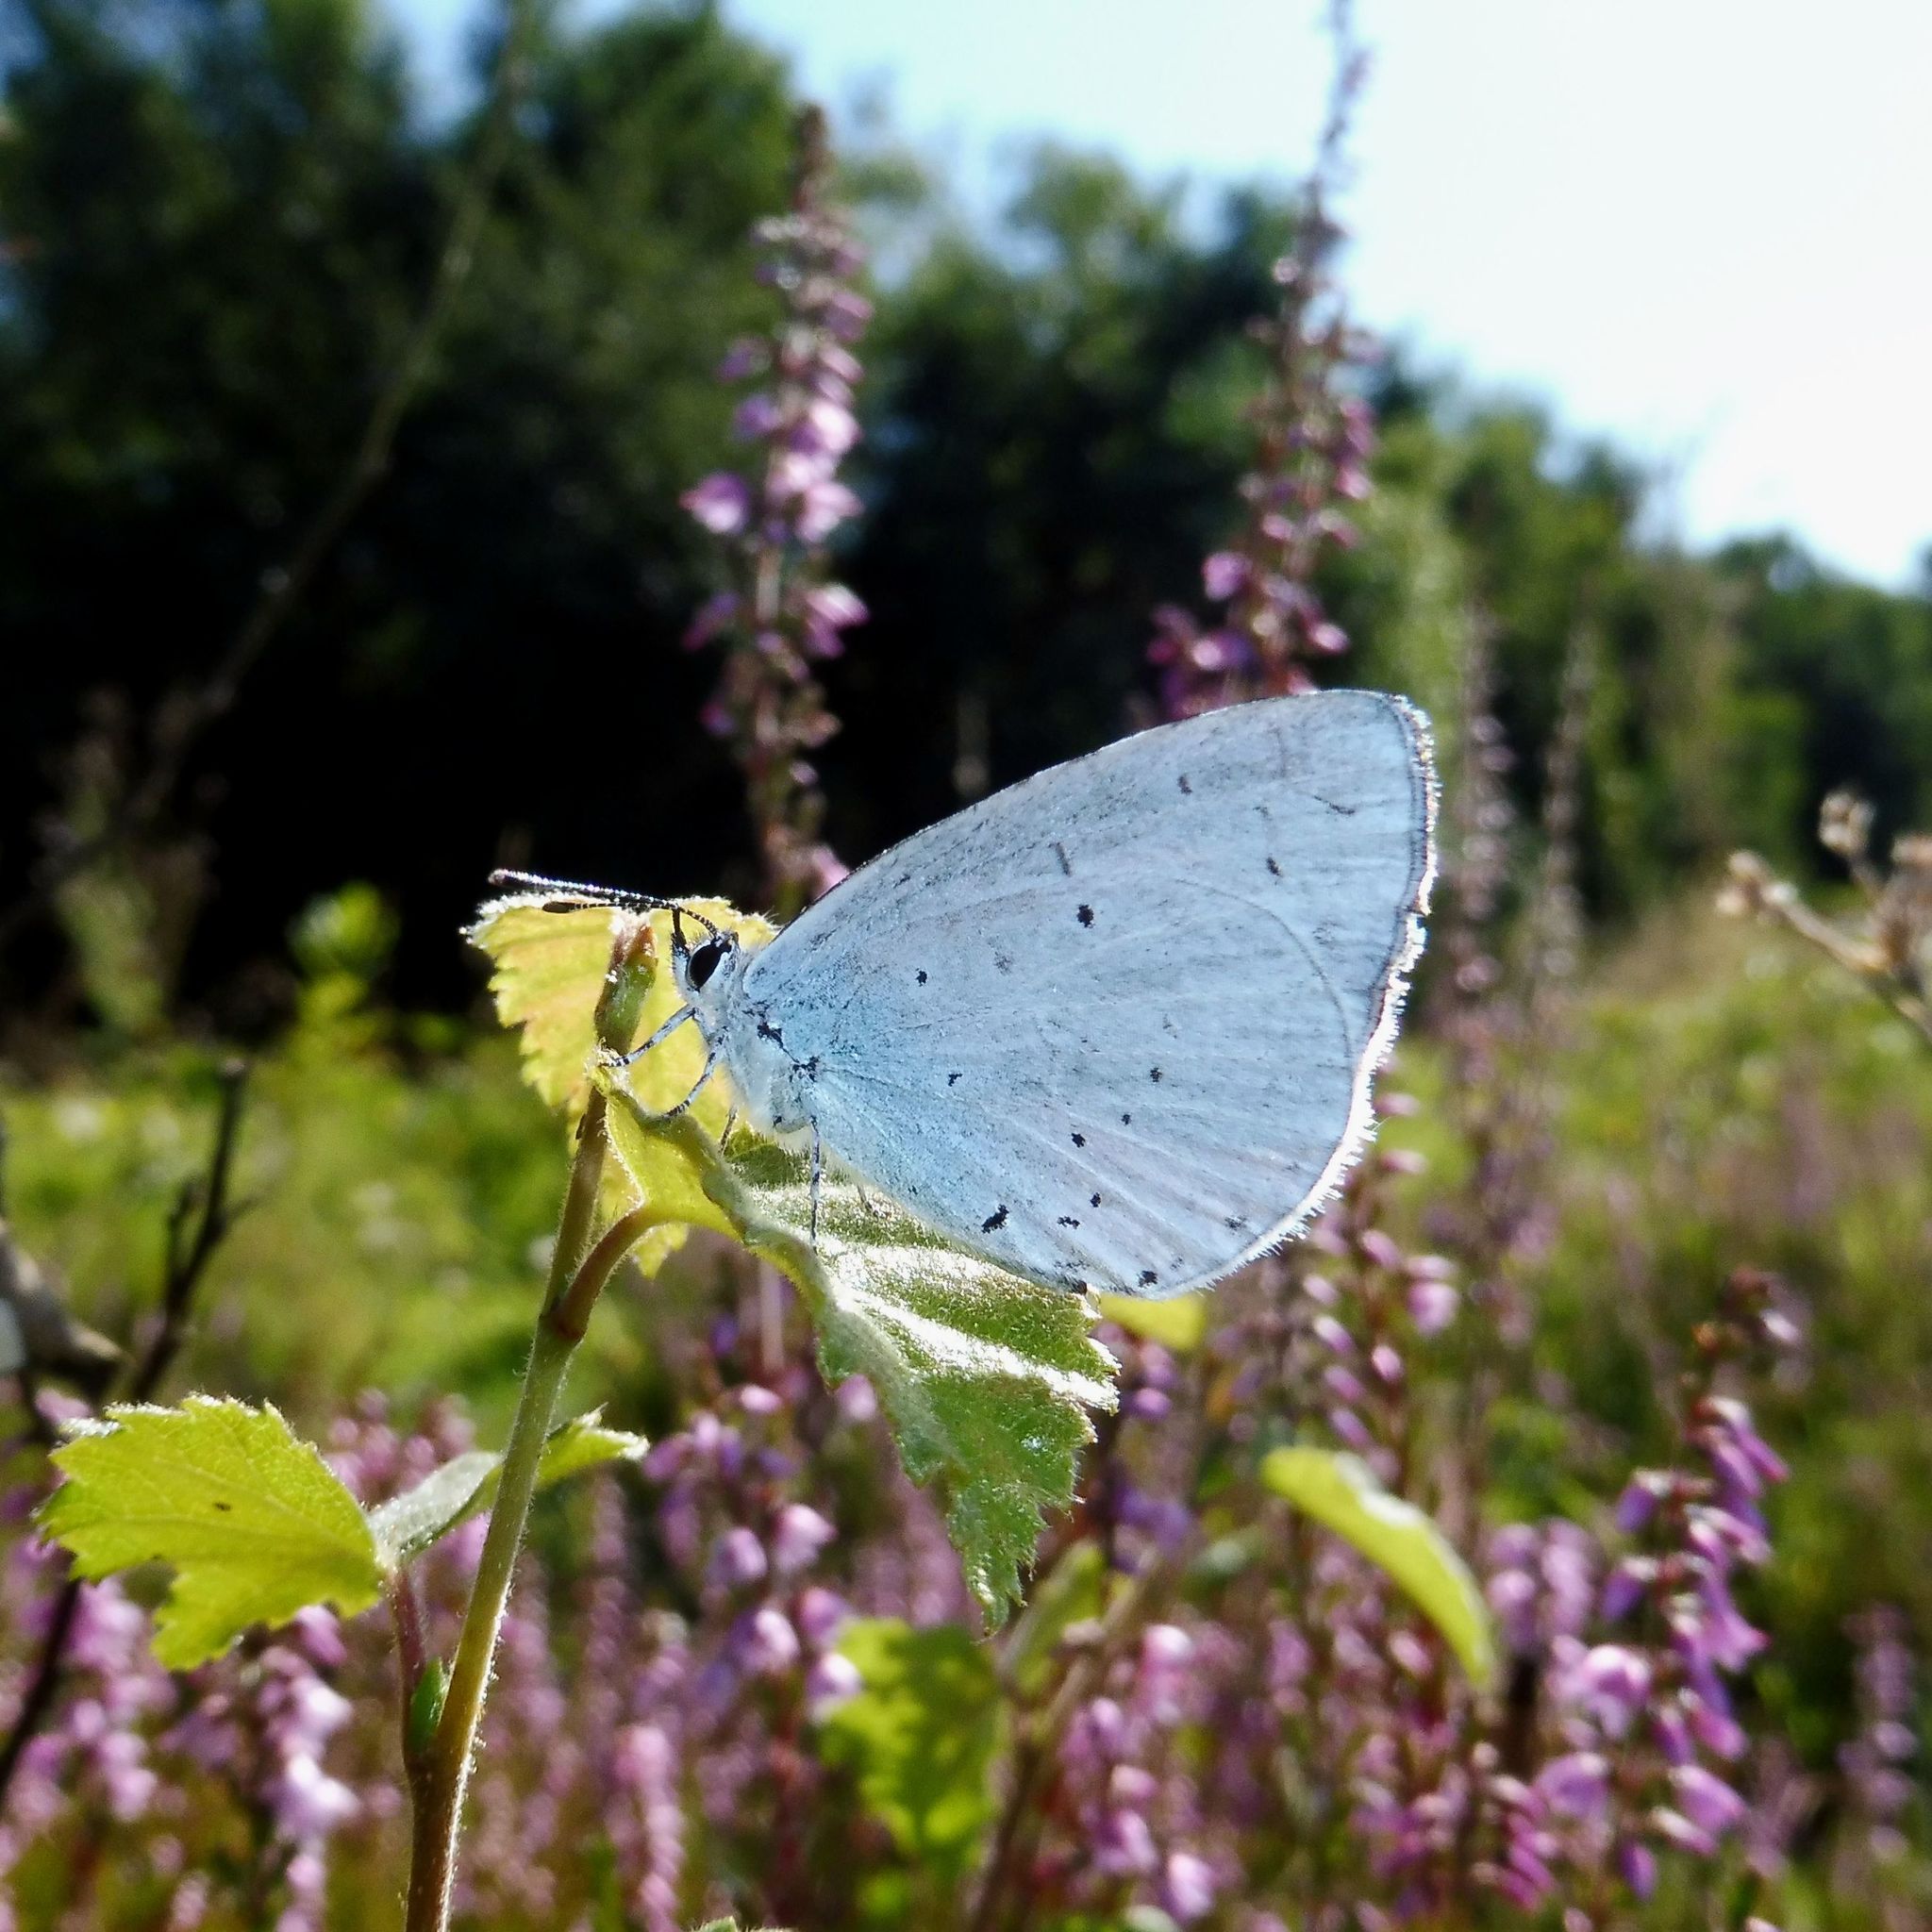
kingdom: Animalia
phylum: Arthropoda
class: Insecta
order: Lepidoptera
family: Lycaenidae
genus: Celastrina
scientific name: Celastrina argiolus
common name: Holly blue
